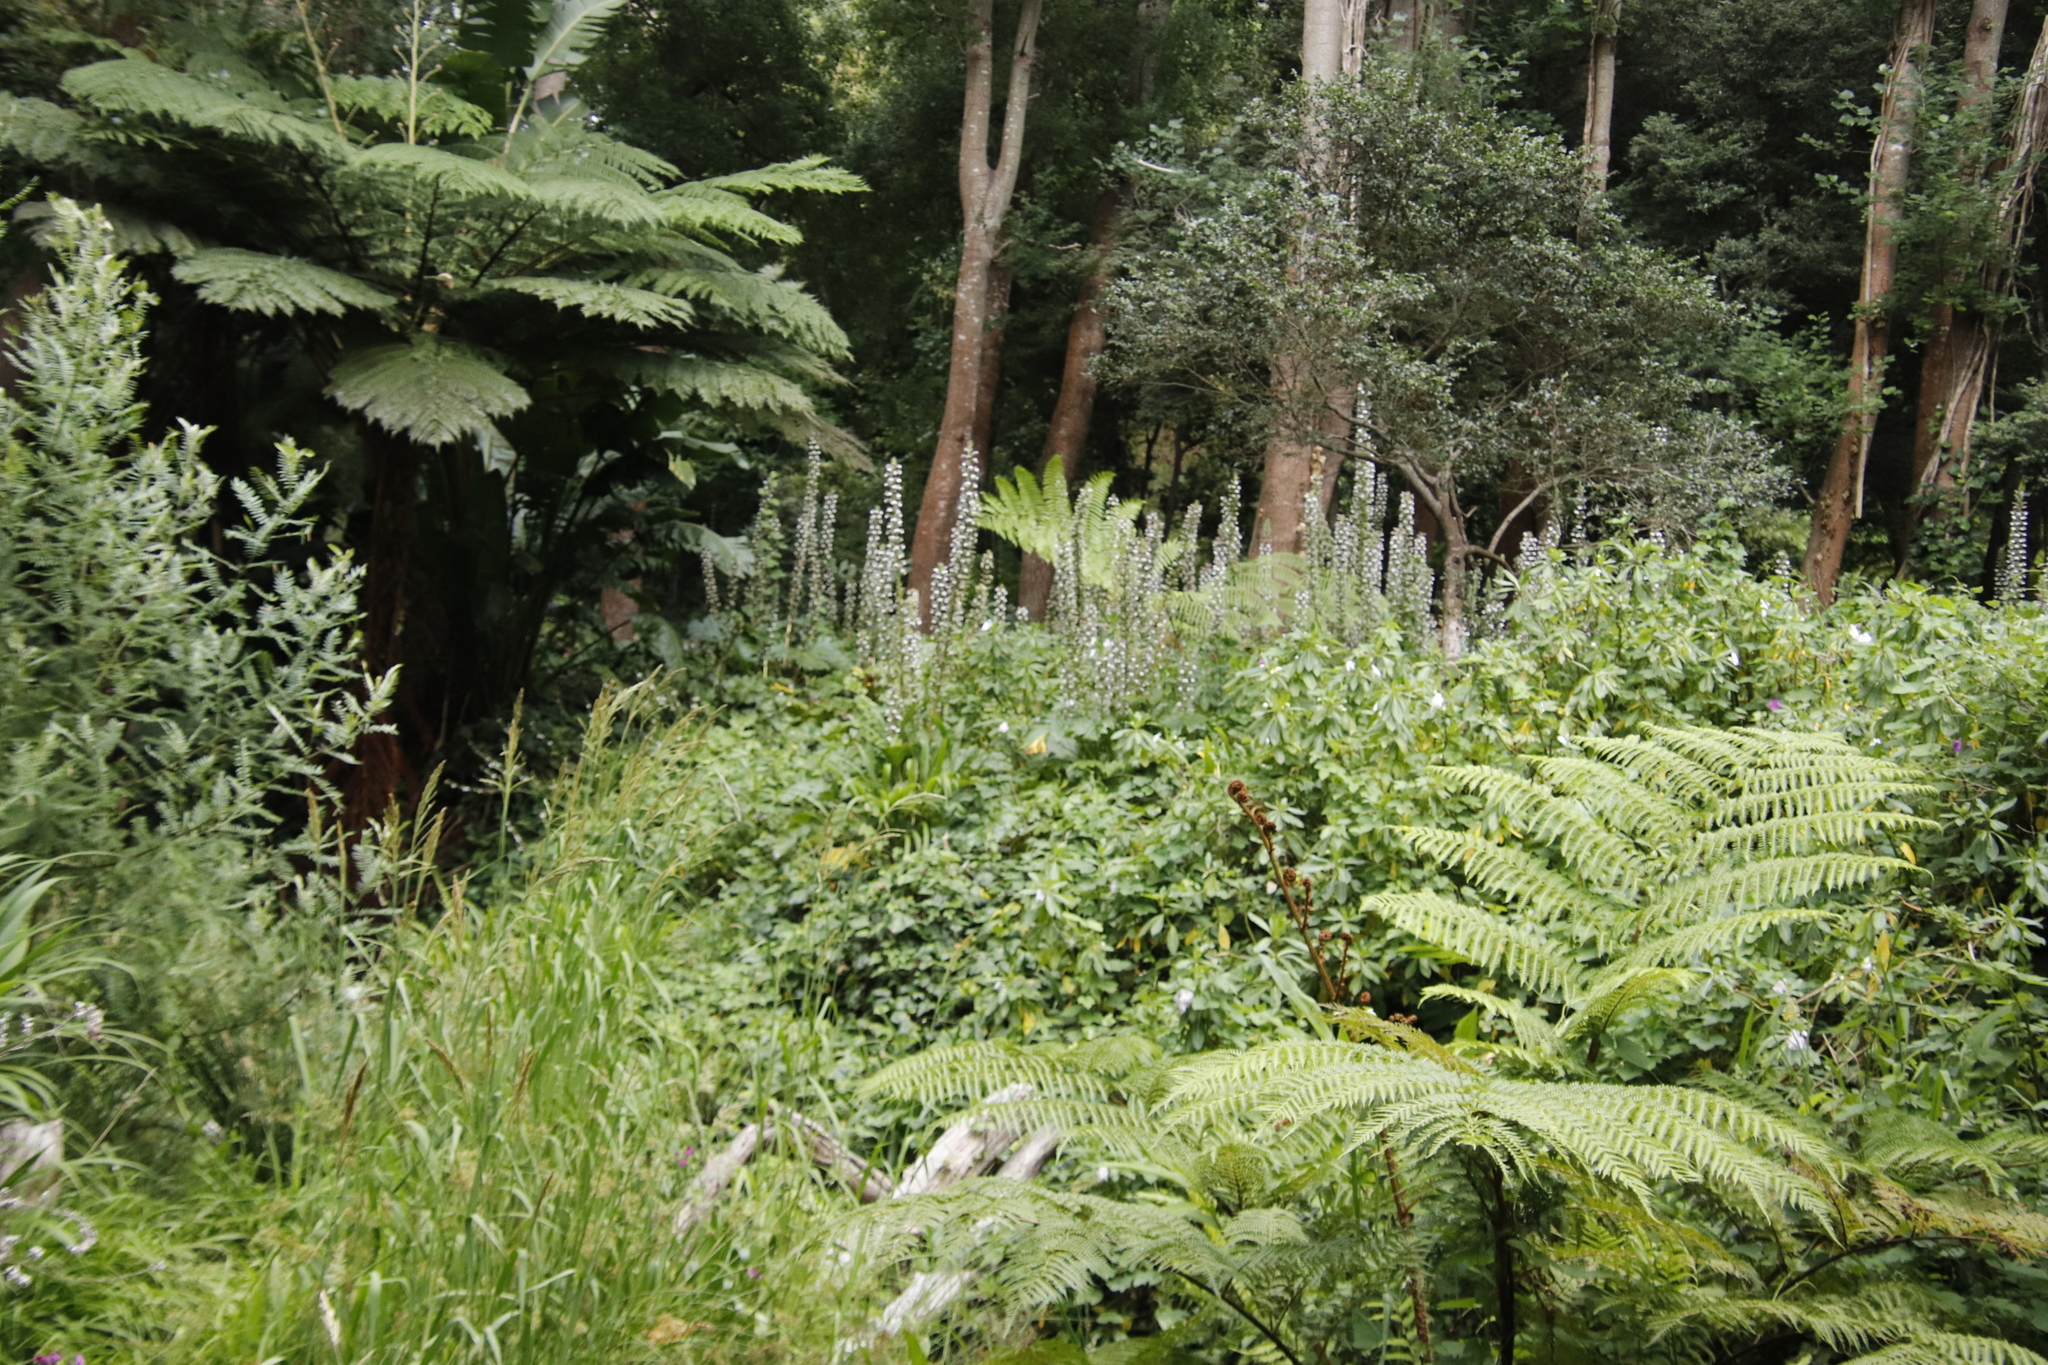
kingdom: Plantae
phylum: Tracheophyta
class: Magnoliopsida
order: Lamiales
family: Acanthaceae
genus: Acanthus
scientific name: Acanthus mollis
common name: Bear's-breech
